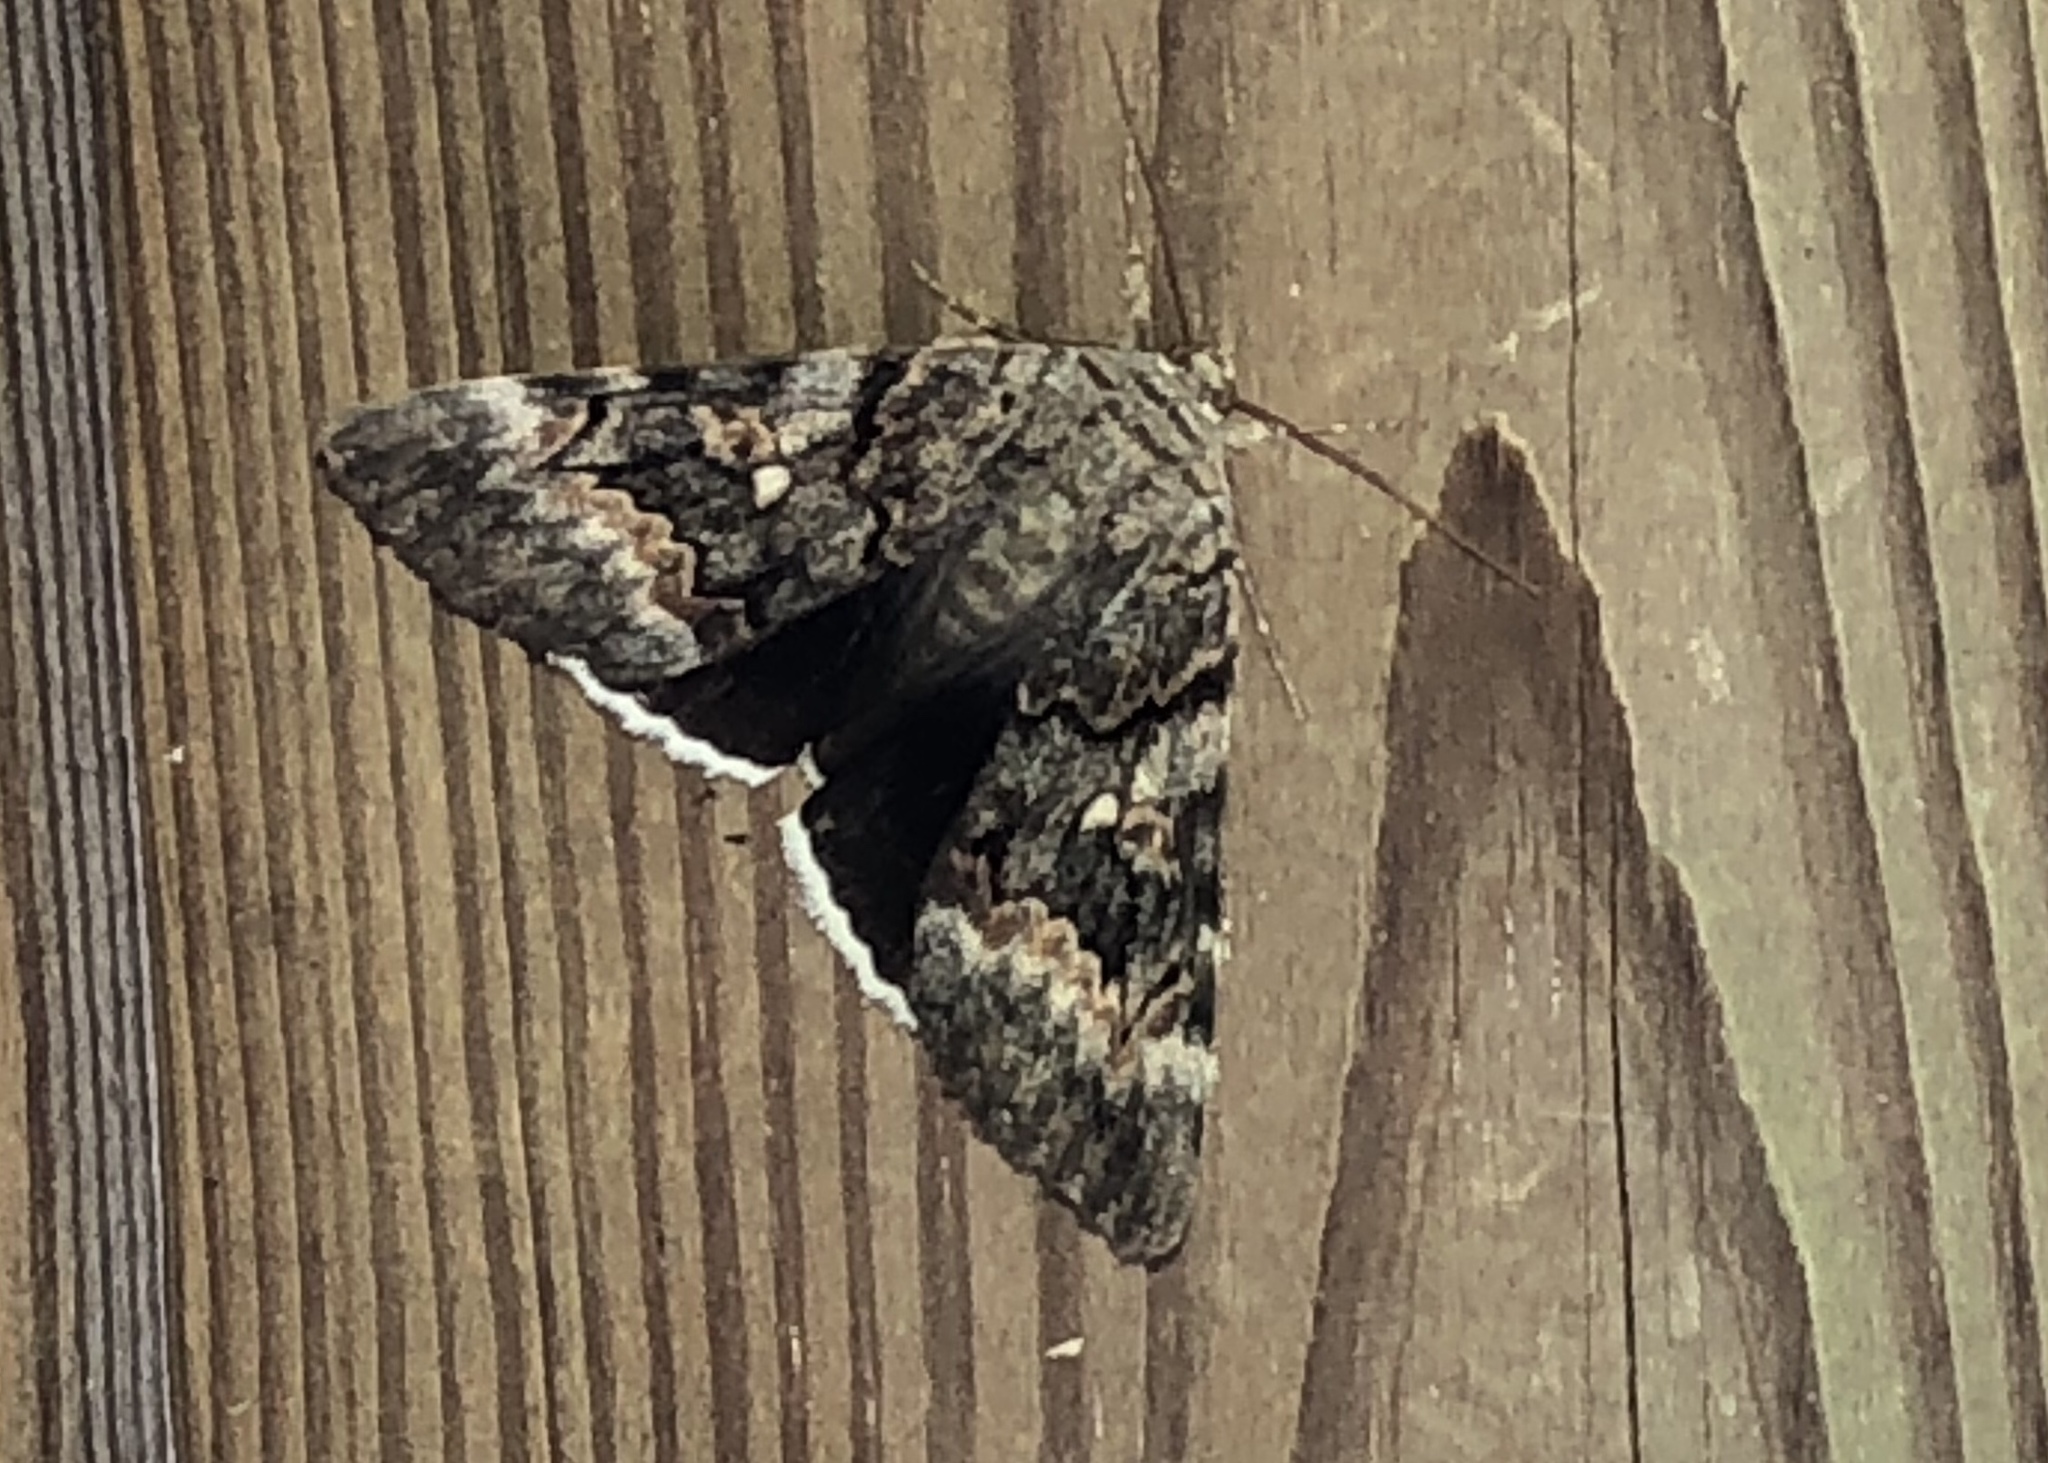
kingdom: Animalia
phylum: Arthropoda
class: Insecta
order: Lepidoptera
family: Erebidae
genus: Catocala
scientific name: Catocala epione
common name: Epione underwing
